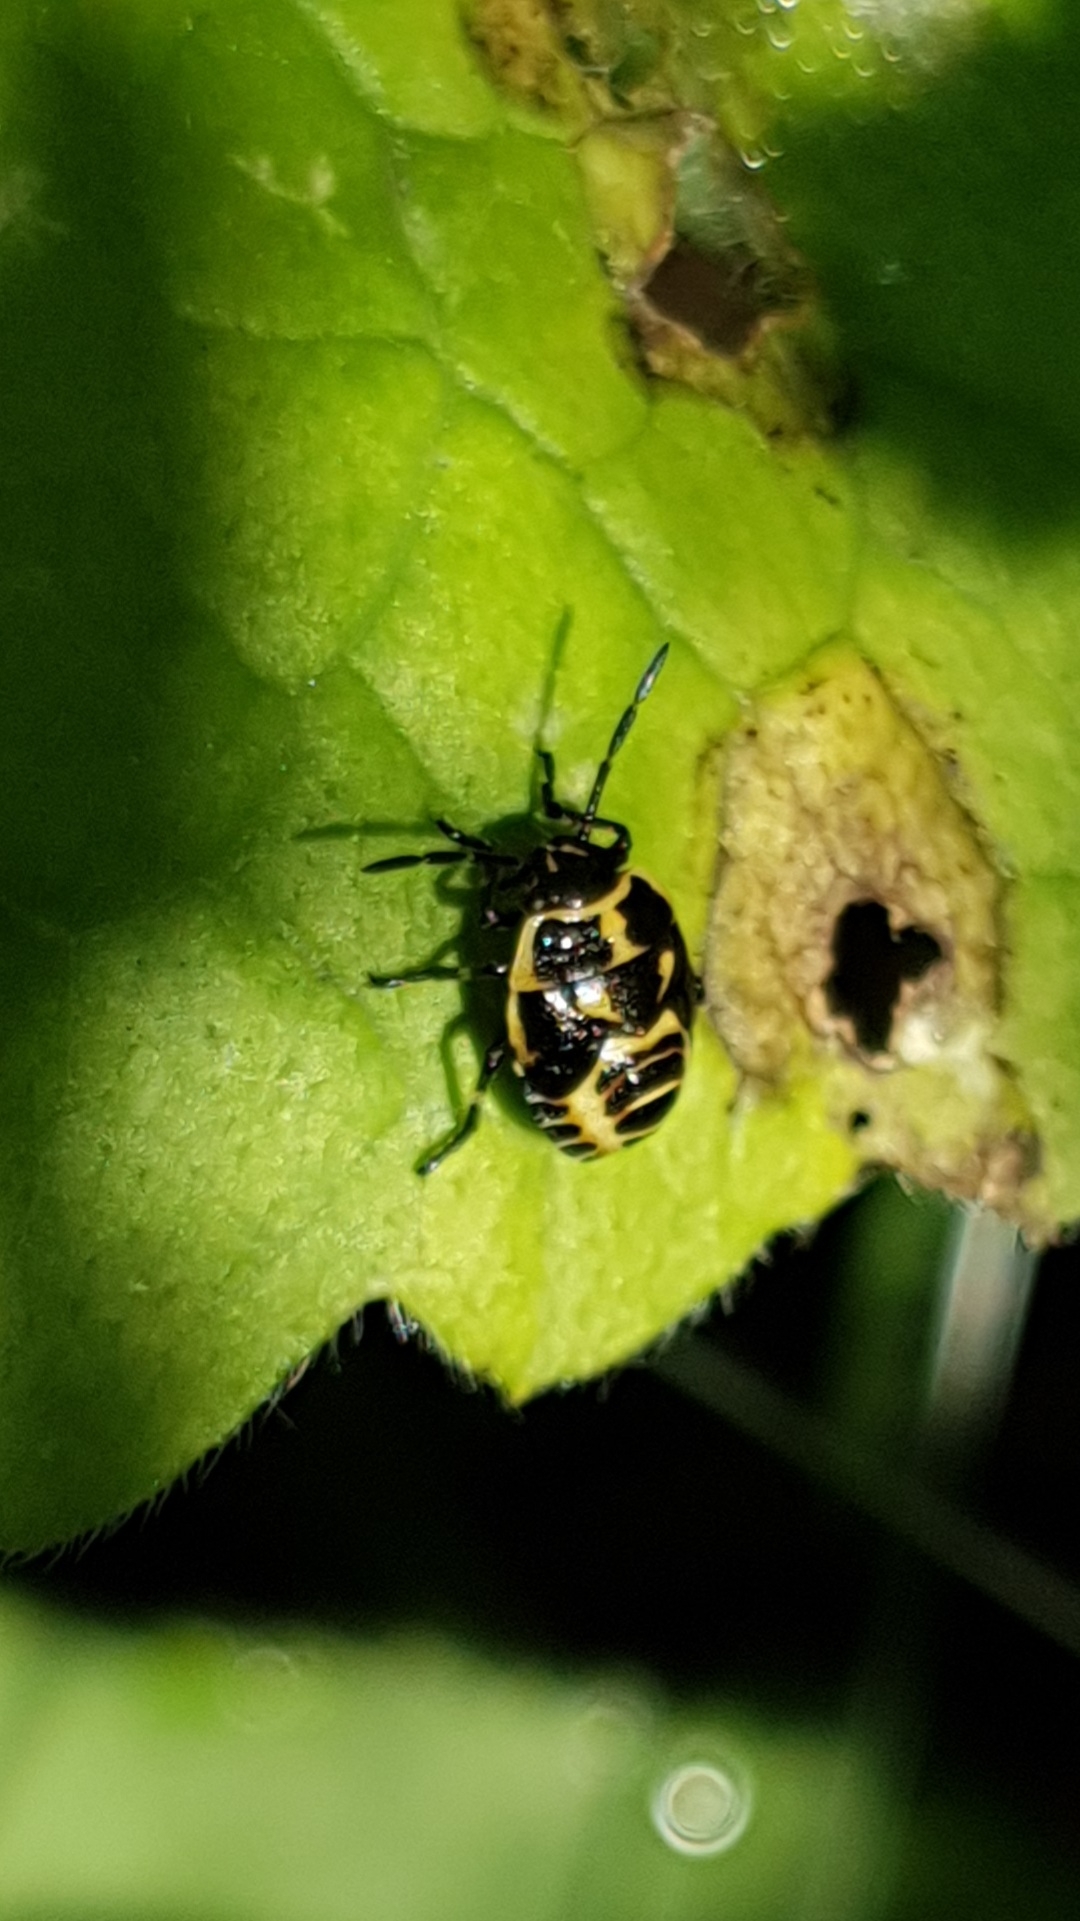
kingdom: Animalia
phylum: Arthropoda
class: Insecta
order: Hemiptera
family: Pentatomidae
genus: Eurydema
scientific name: Eurydema oleracea
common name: Cabbage bug
